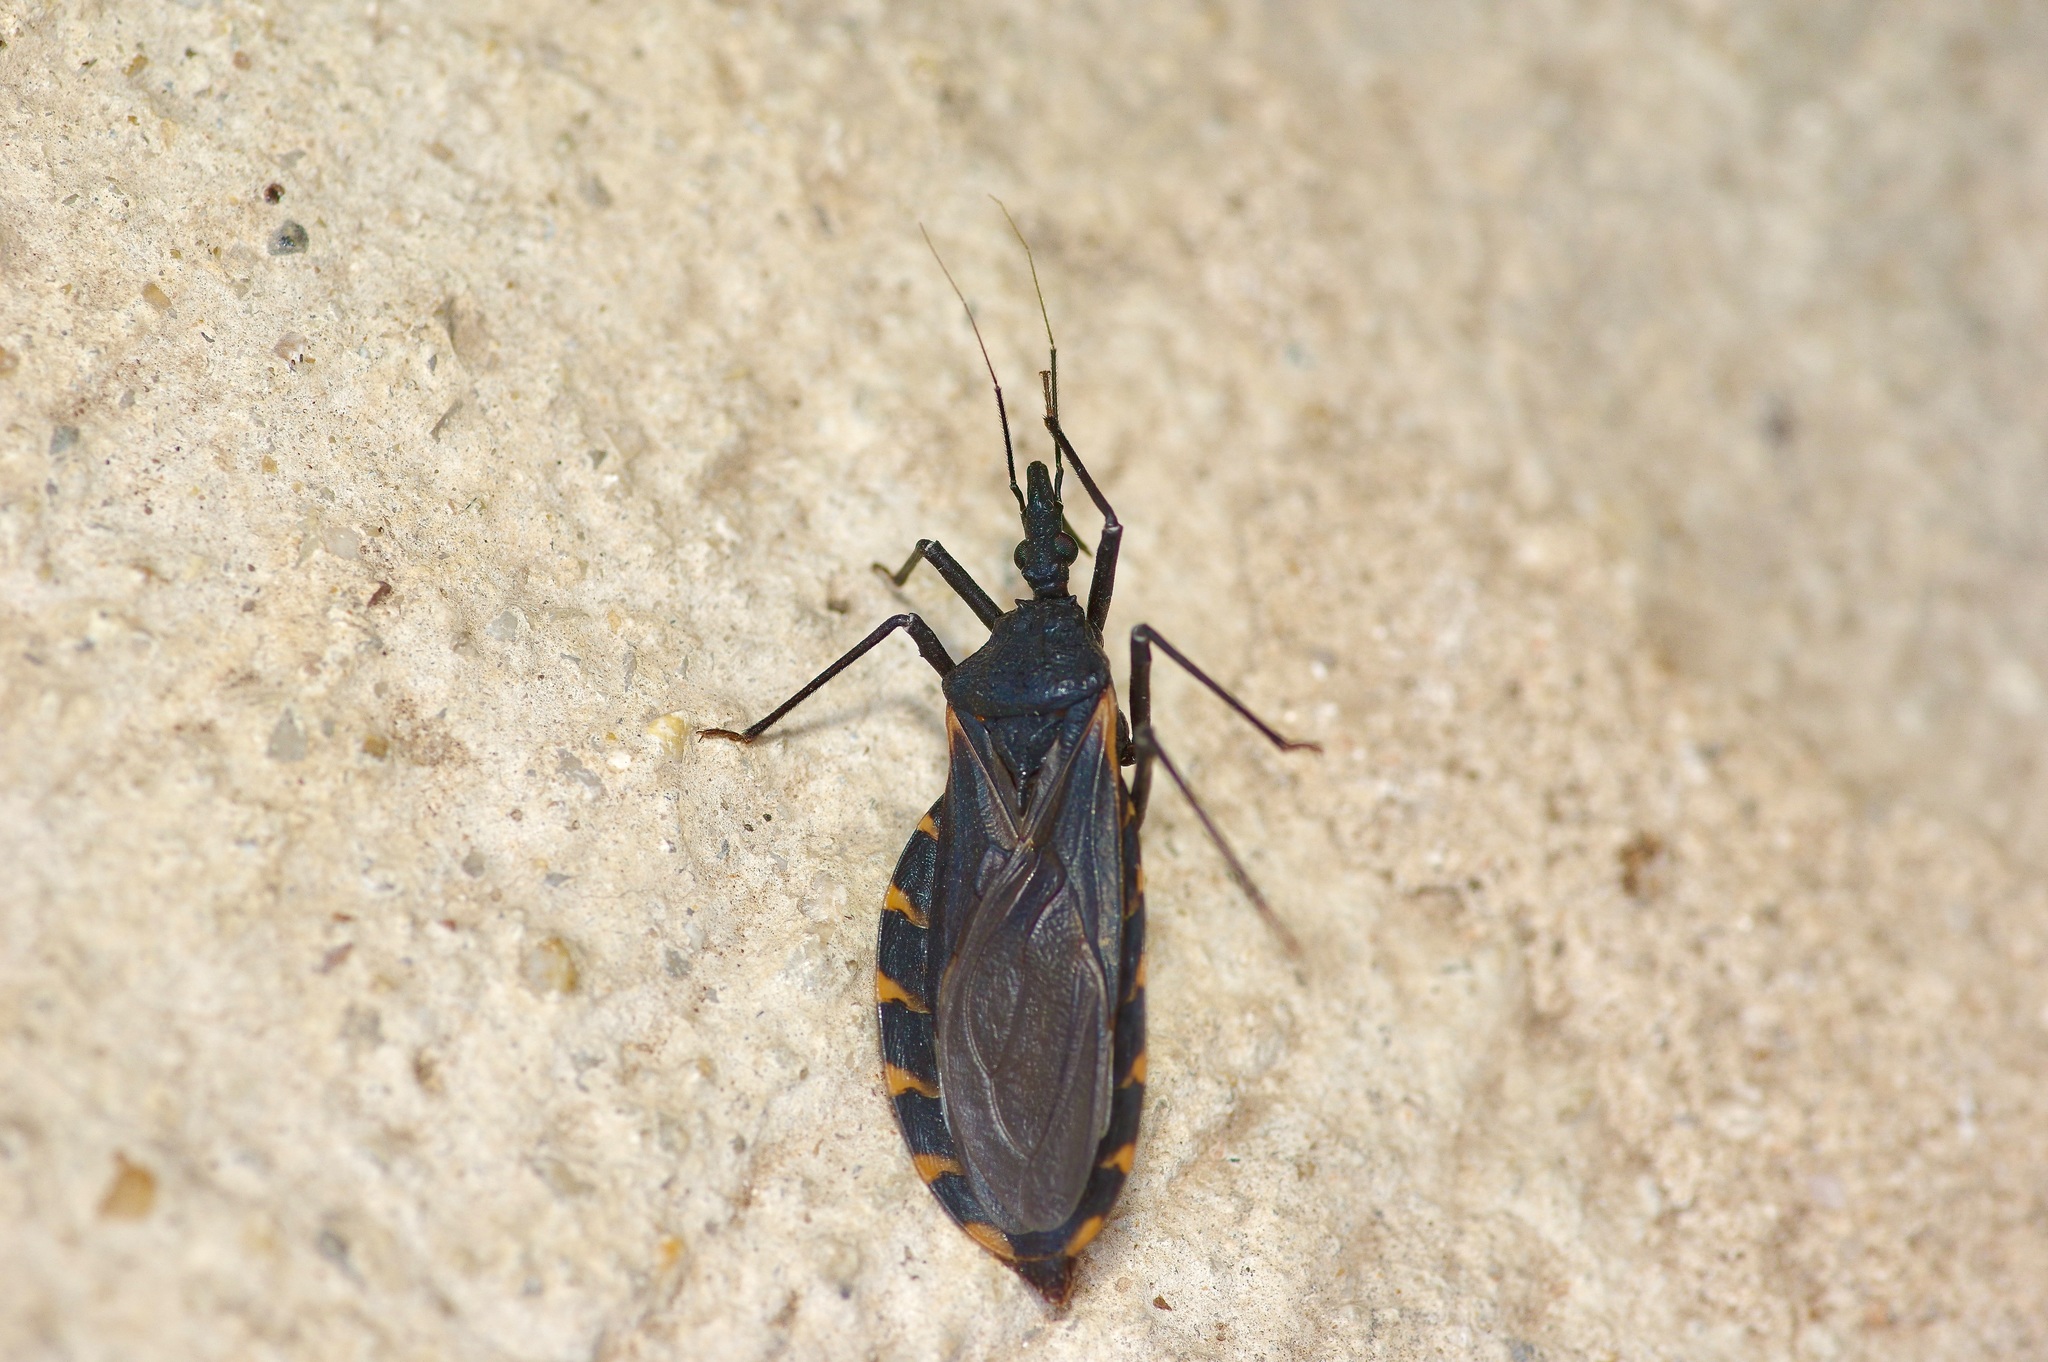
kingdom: Animalia
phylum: Arthropoda
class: Insecta
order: Hemiptera
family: Reduviidae
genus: Triatoma
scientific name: Triatoma gerstaeckeri
